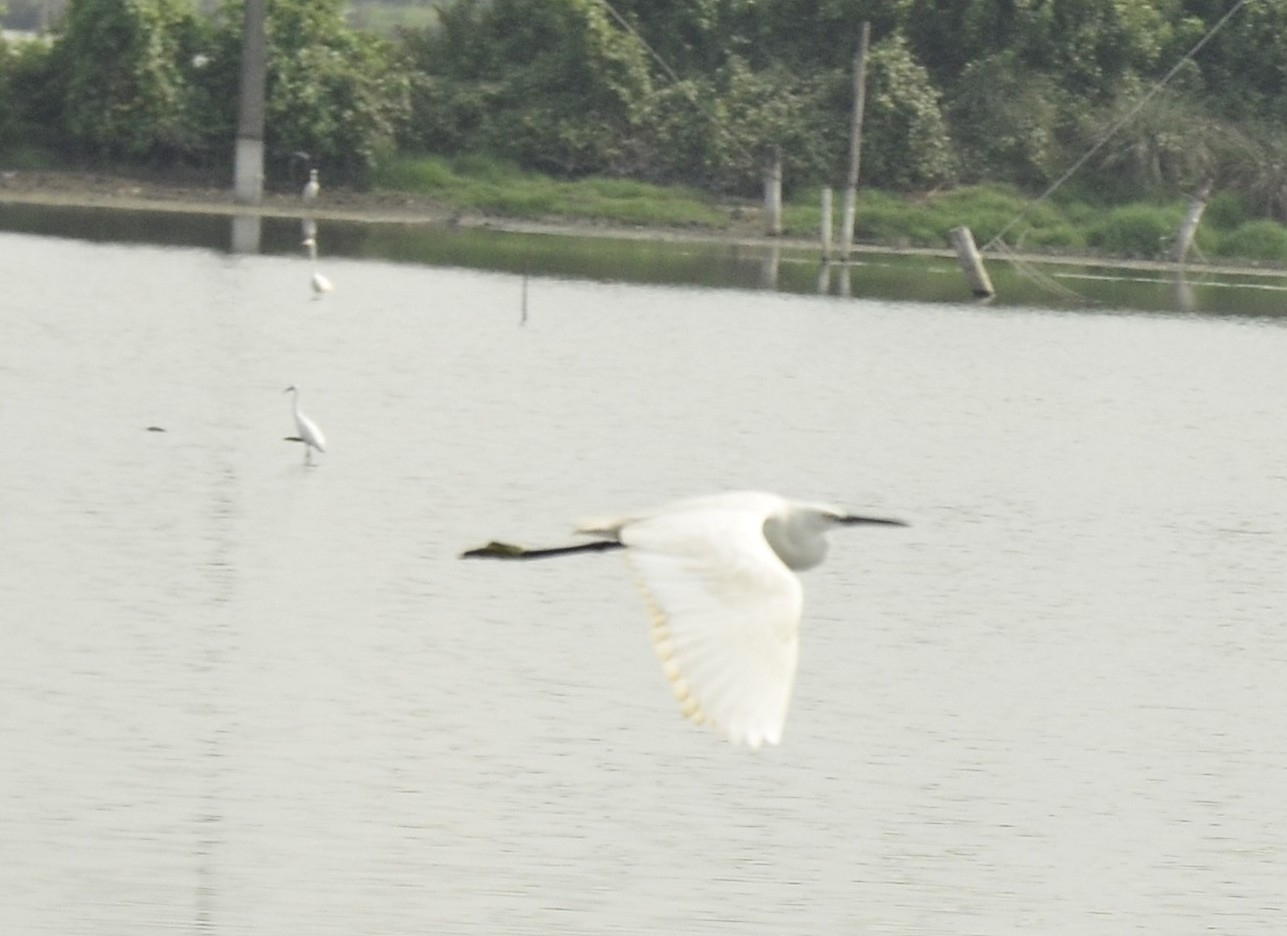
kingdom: Animalia
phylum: Chordata
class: Aves
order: Pelecaniformes
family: Ardeidae
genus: Egretta
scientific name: Egretta garzetta
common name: Little egret
